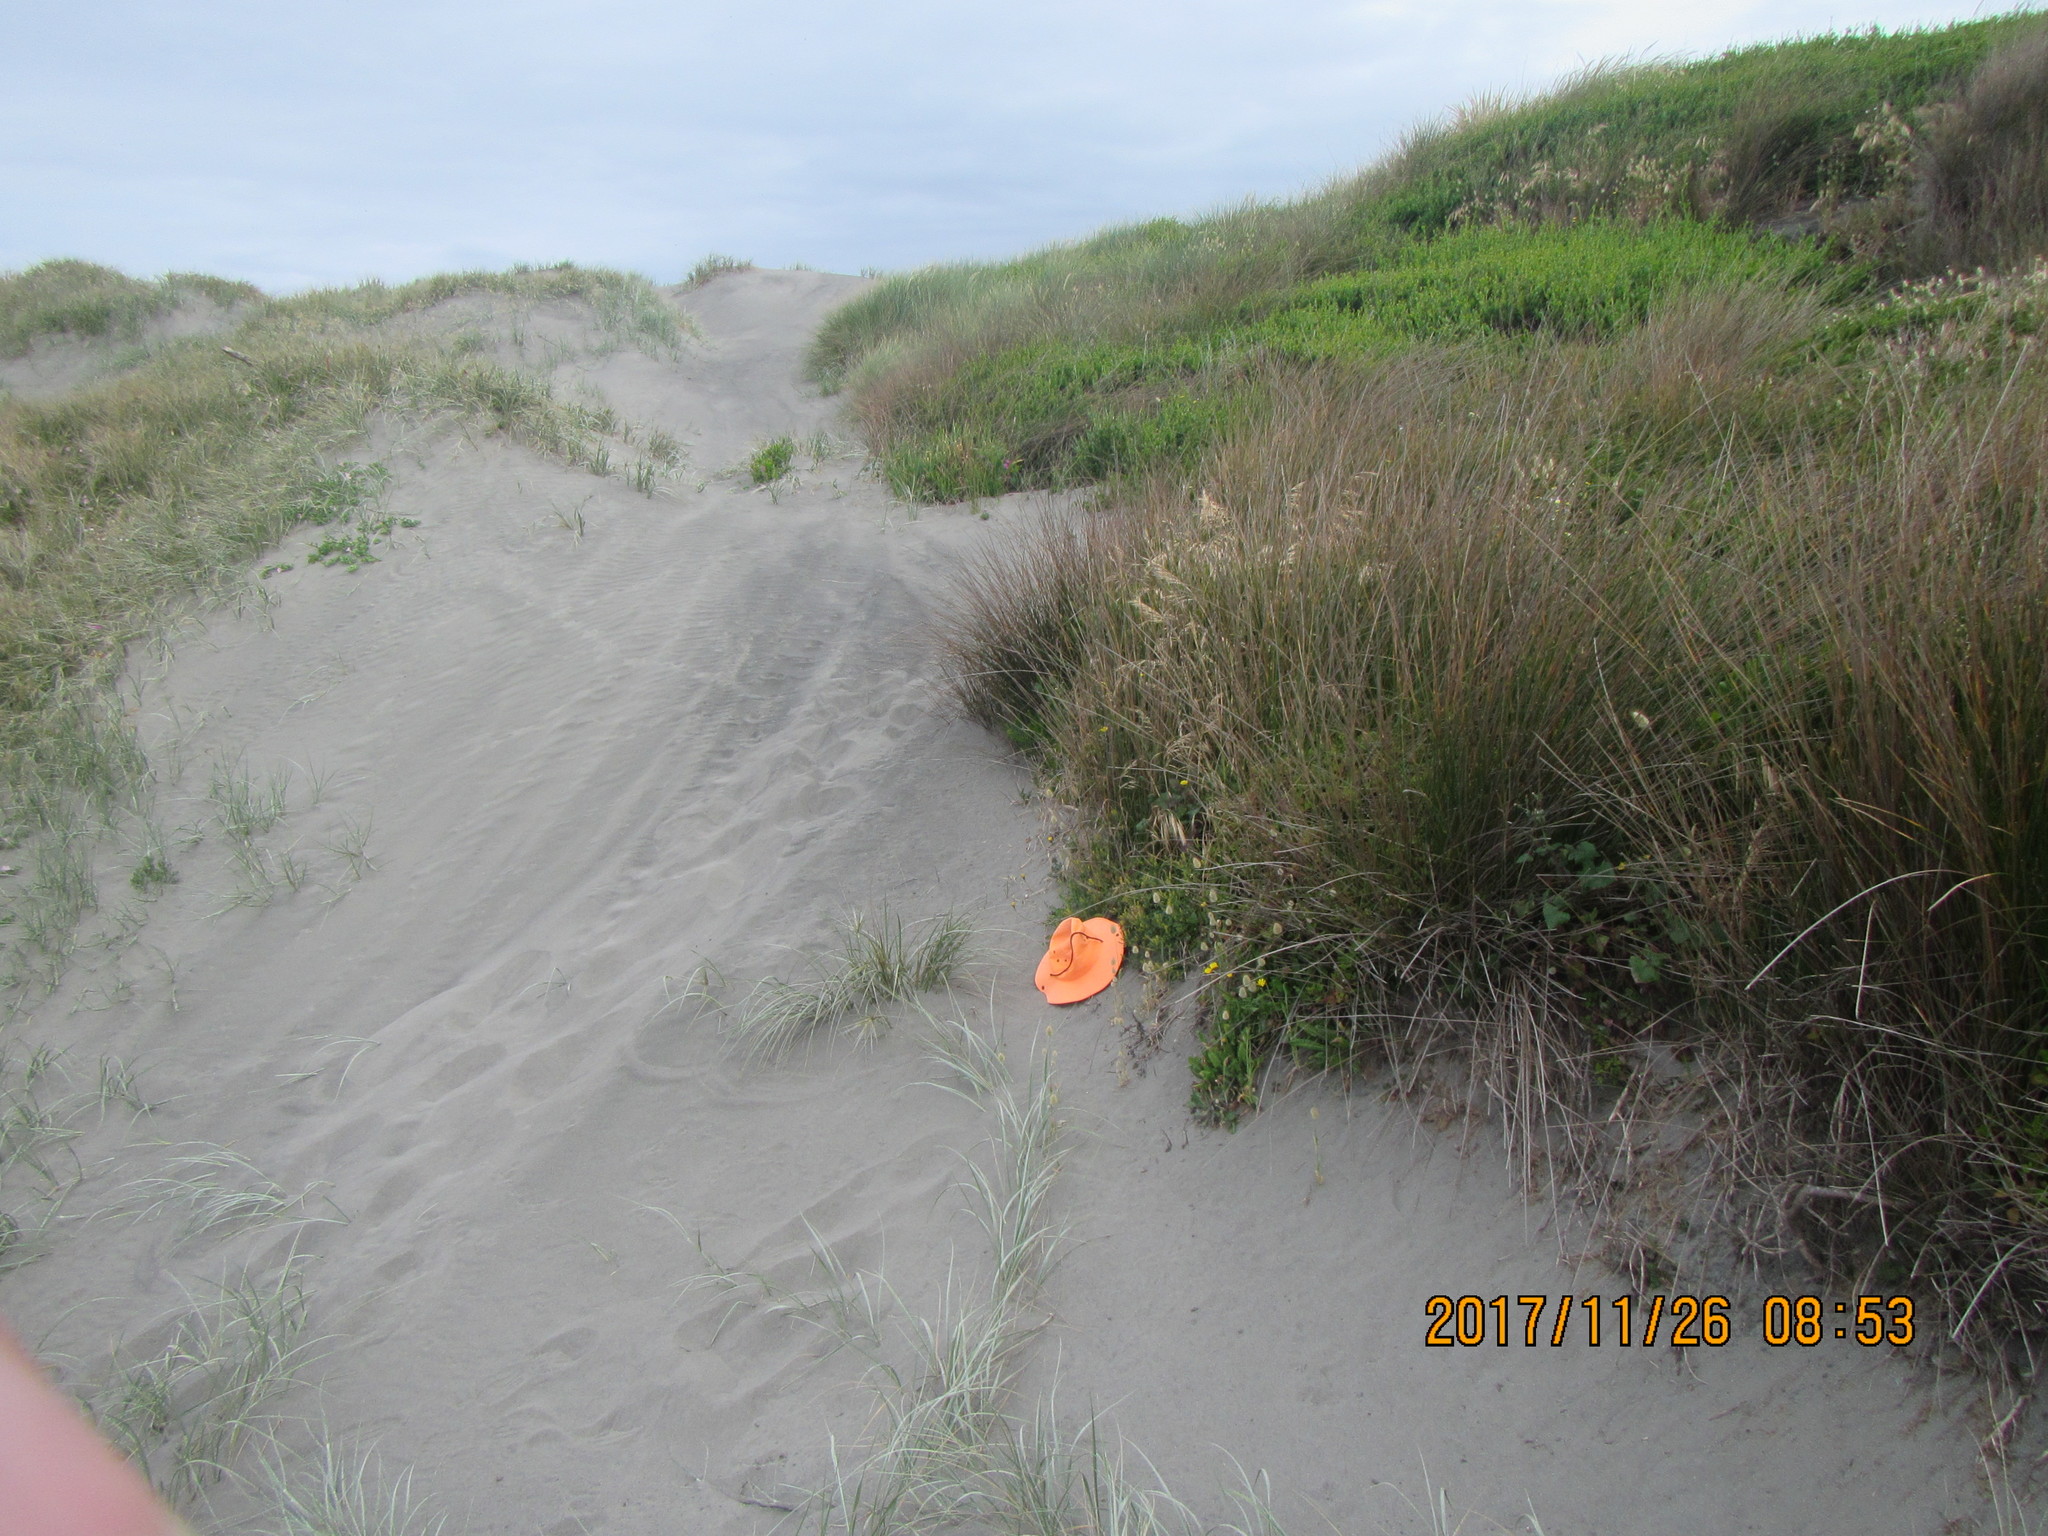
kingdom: Plantae
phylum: Tracheophyta
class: Magnoliopsida
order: Fabales
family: Fabaceae
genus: Melilotus
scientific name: Melilotus indicus
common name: Small melilot
